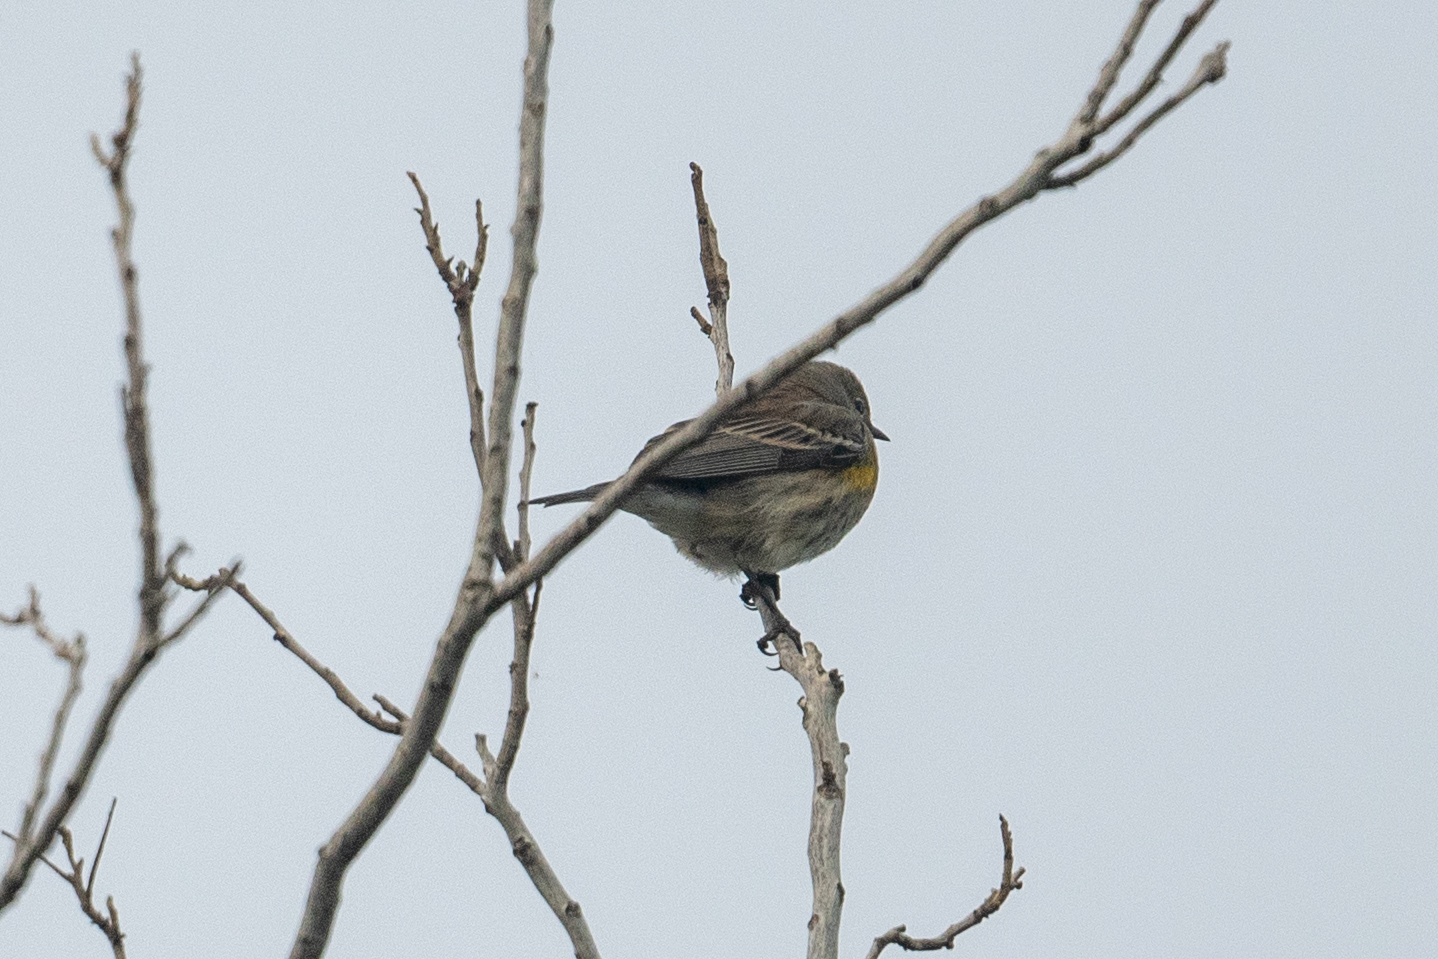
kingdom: Animalia
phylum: Chordata
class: Aves
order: Passeriformes
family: Parulidae
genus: Setophaga
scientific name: Setophaga coronata
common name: Myrtle warbler
